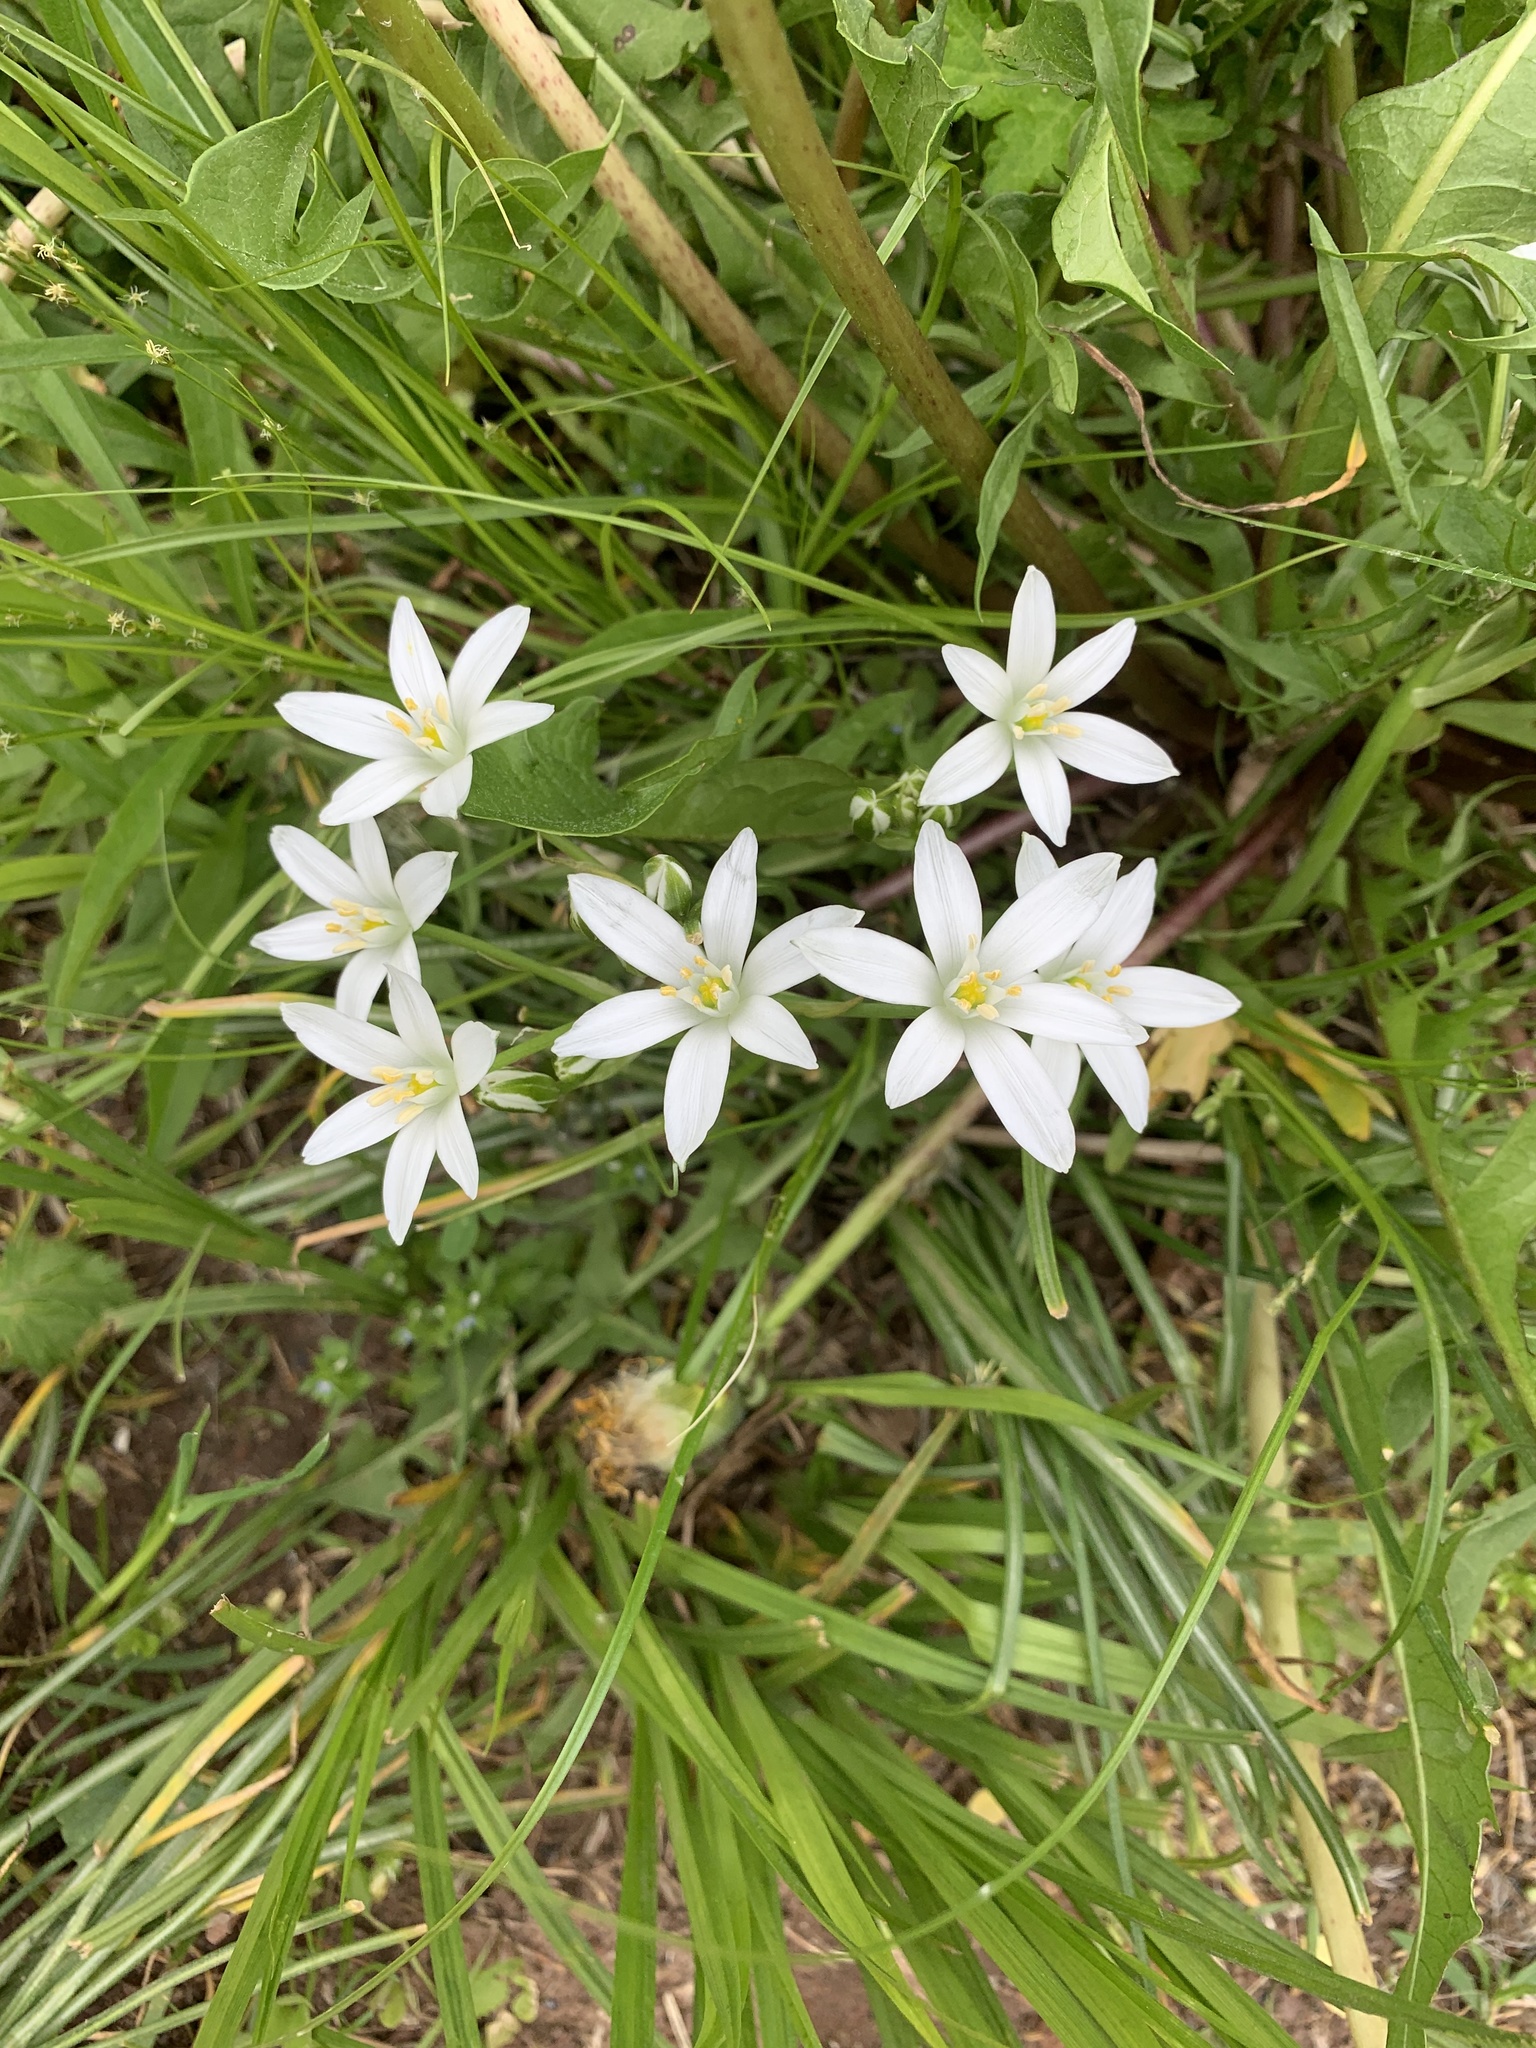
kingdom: Plantae
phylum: Tracheophyta
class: Liliopsida
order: Asparagales
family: Asparagaceae
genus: Ornithogalum
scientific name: Ornithogalum umbellatum
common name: Garden star-of-bethlehem
